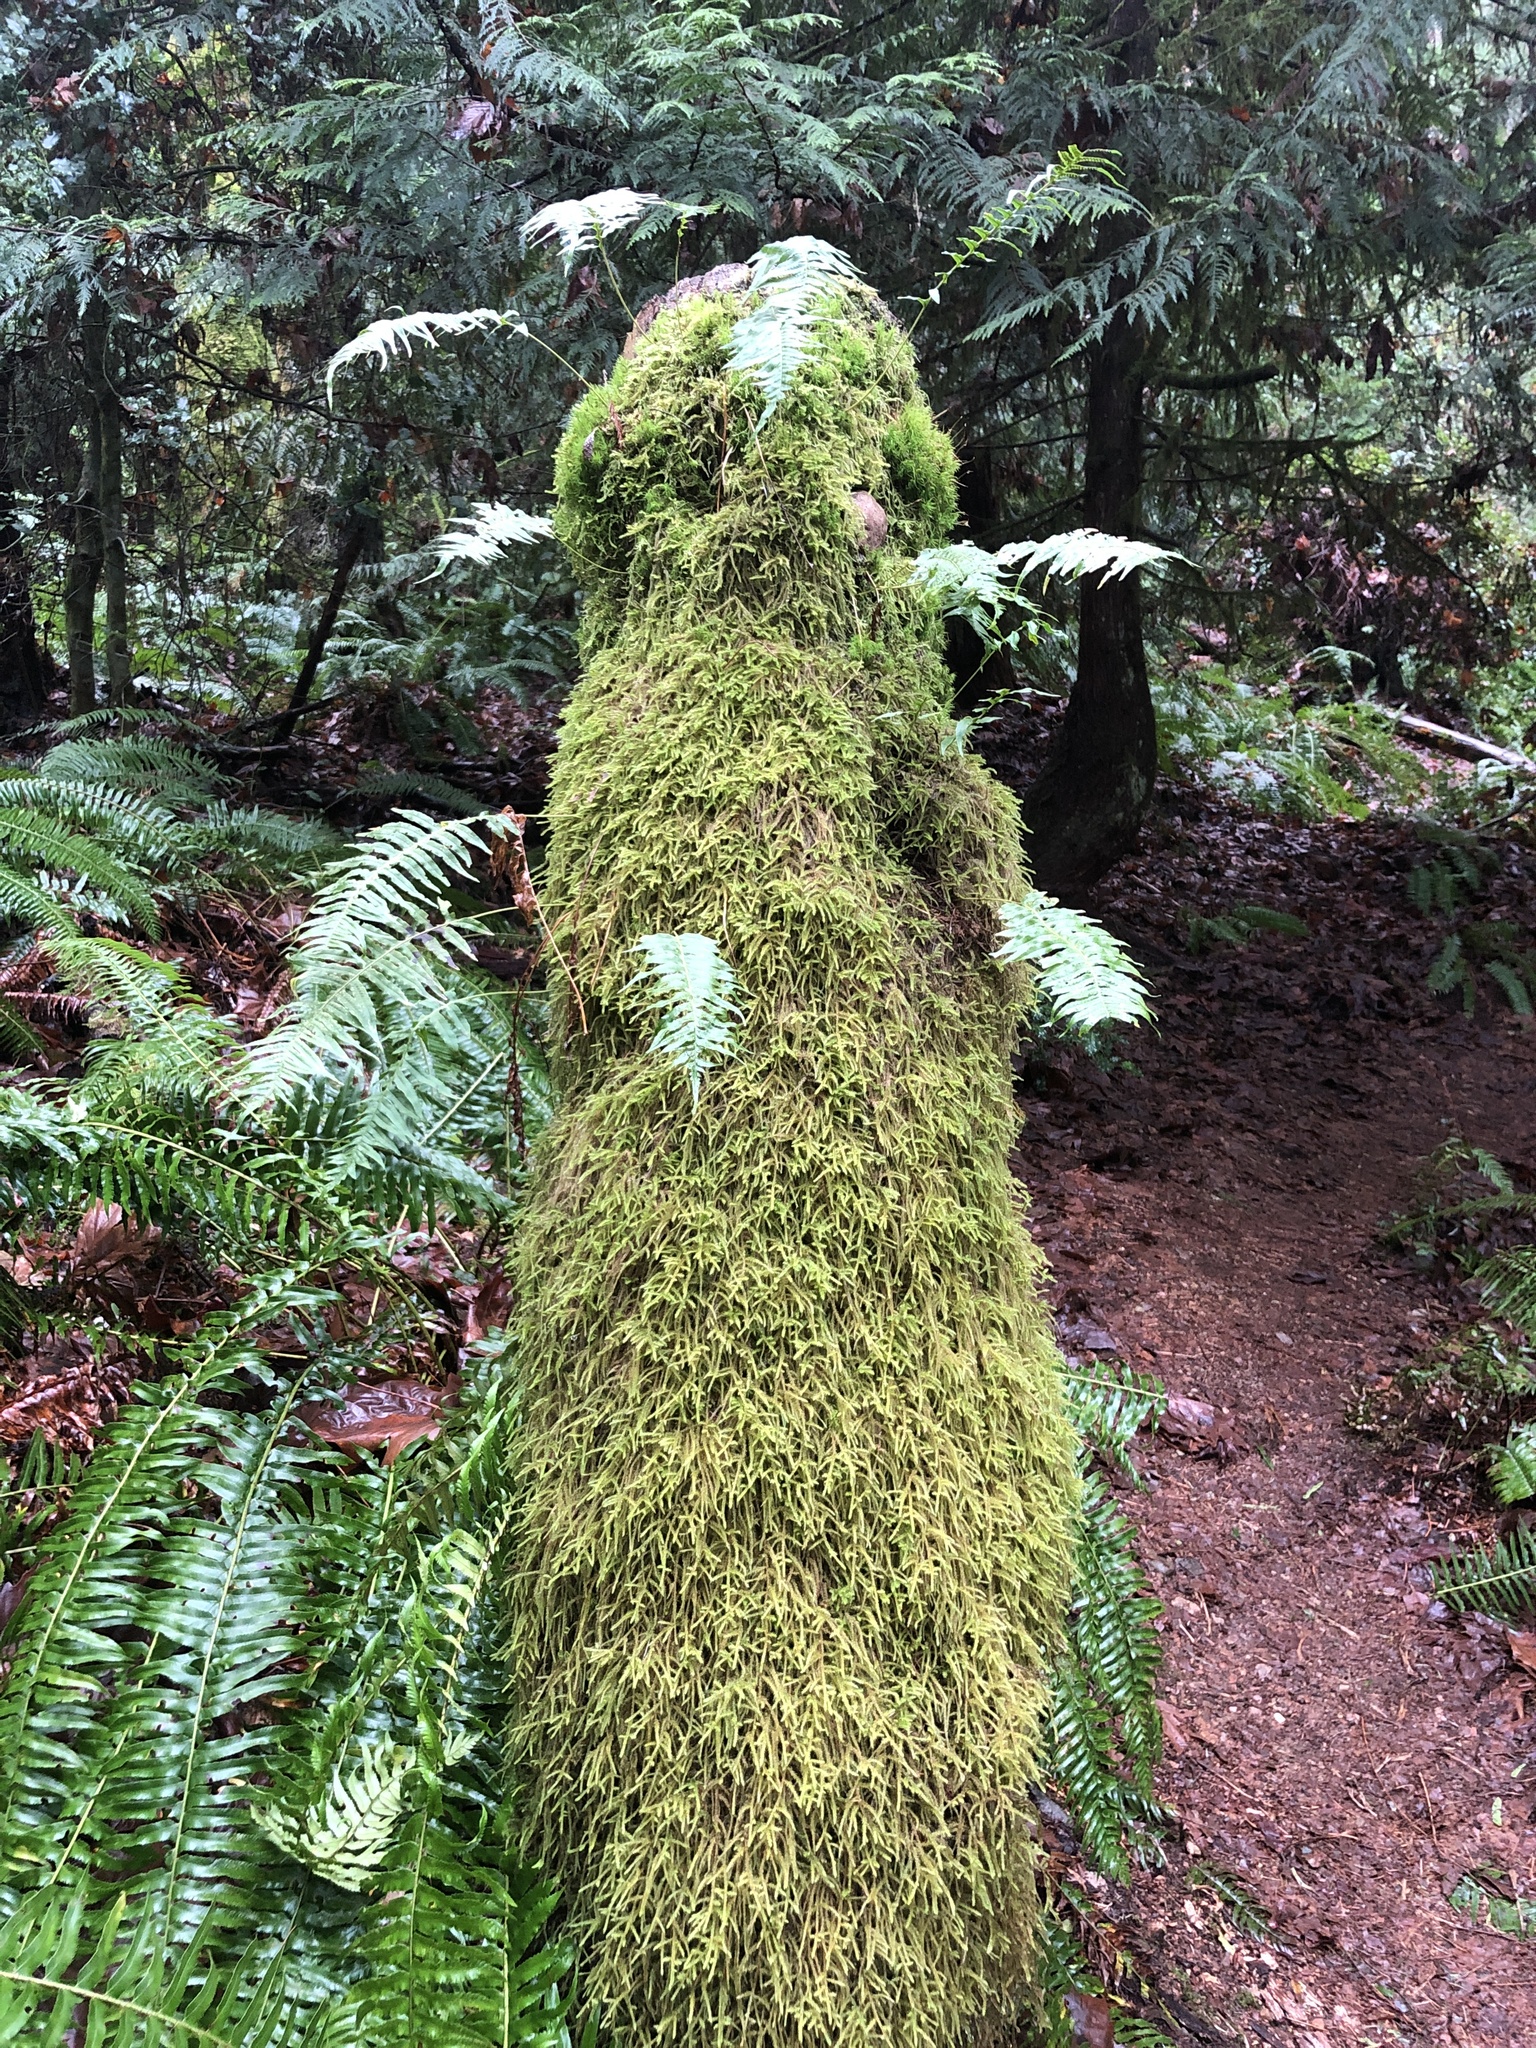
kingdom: Plantae
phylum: Tracheophyta
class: Polypodiopsida
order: Polypodiales
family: Polypodiaceae
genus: Polypodium
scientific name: Polypodium glycyrrhiza
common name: Licorice fern
